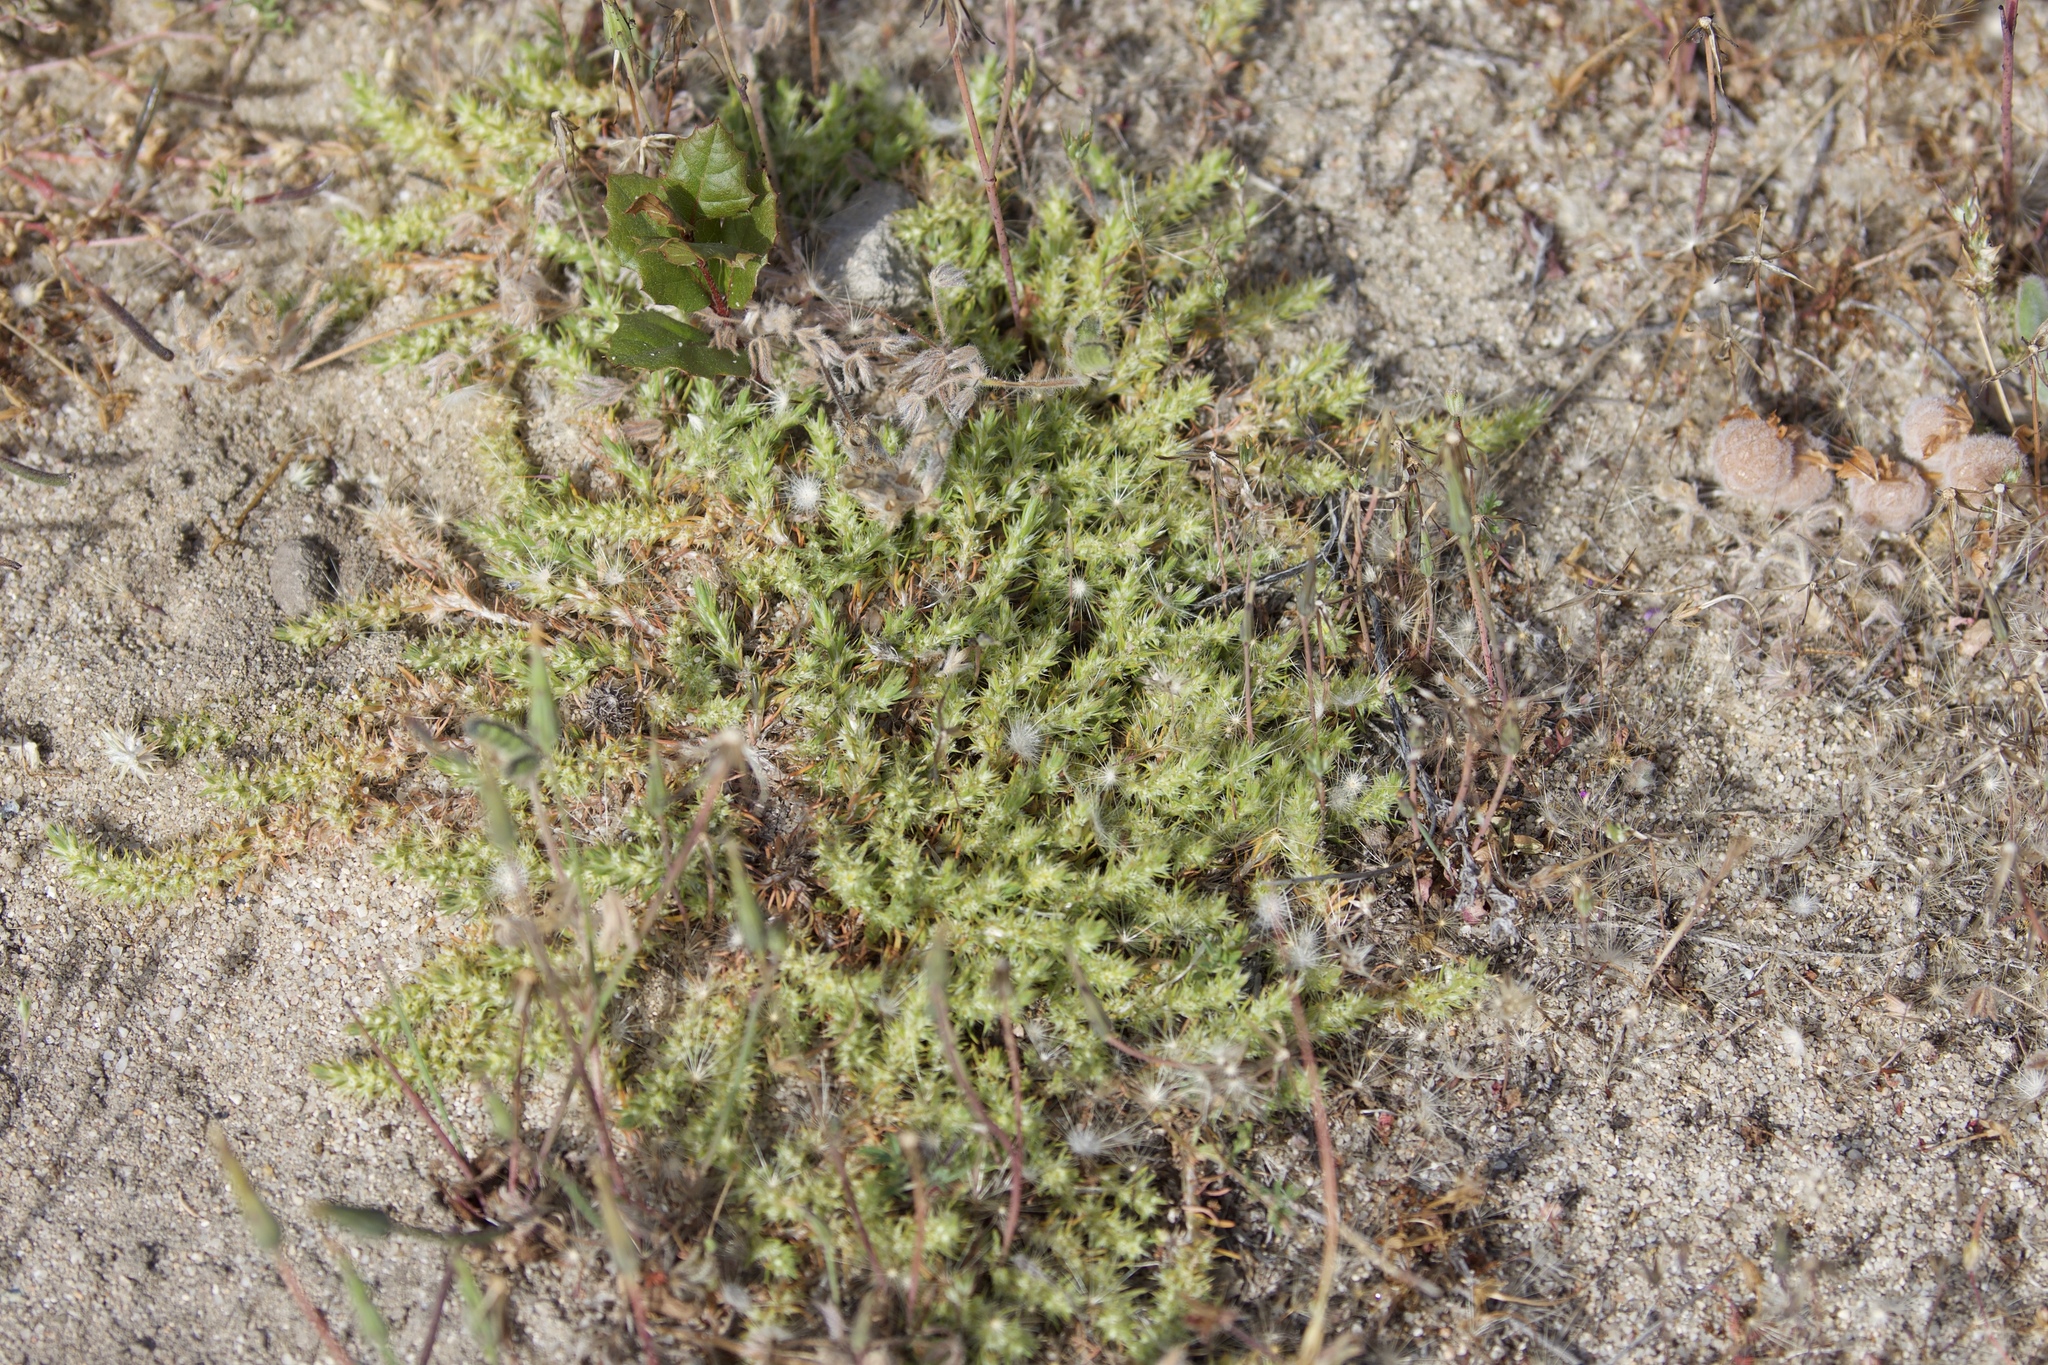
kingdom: Plantae
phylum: Tracheophyta
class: Magnoliopsida
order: Caryophyllales
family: Caryophyllaceae
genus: Cardionema
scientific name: Cardionema ramosissima
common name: Sandcarpet
